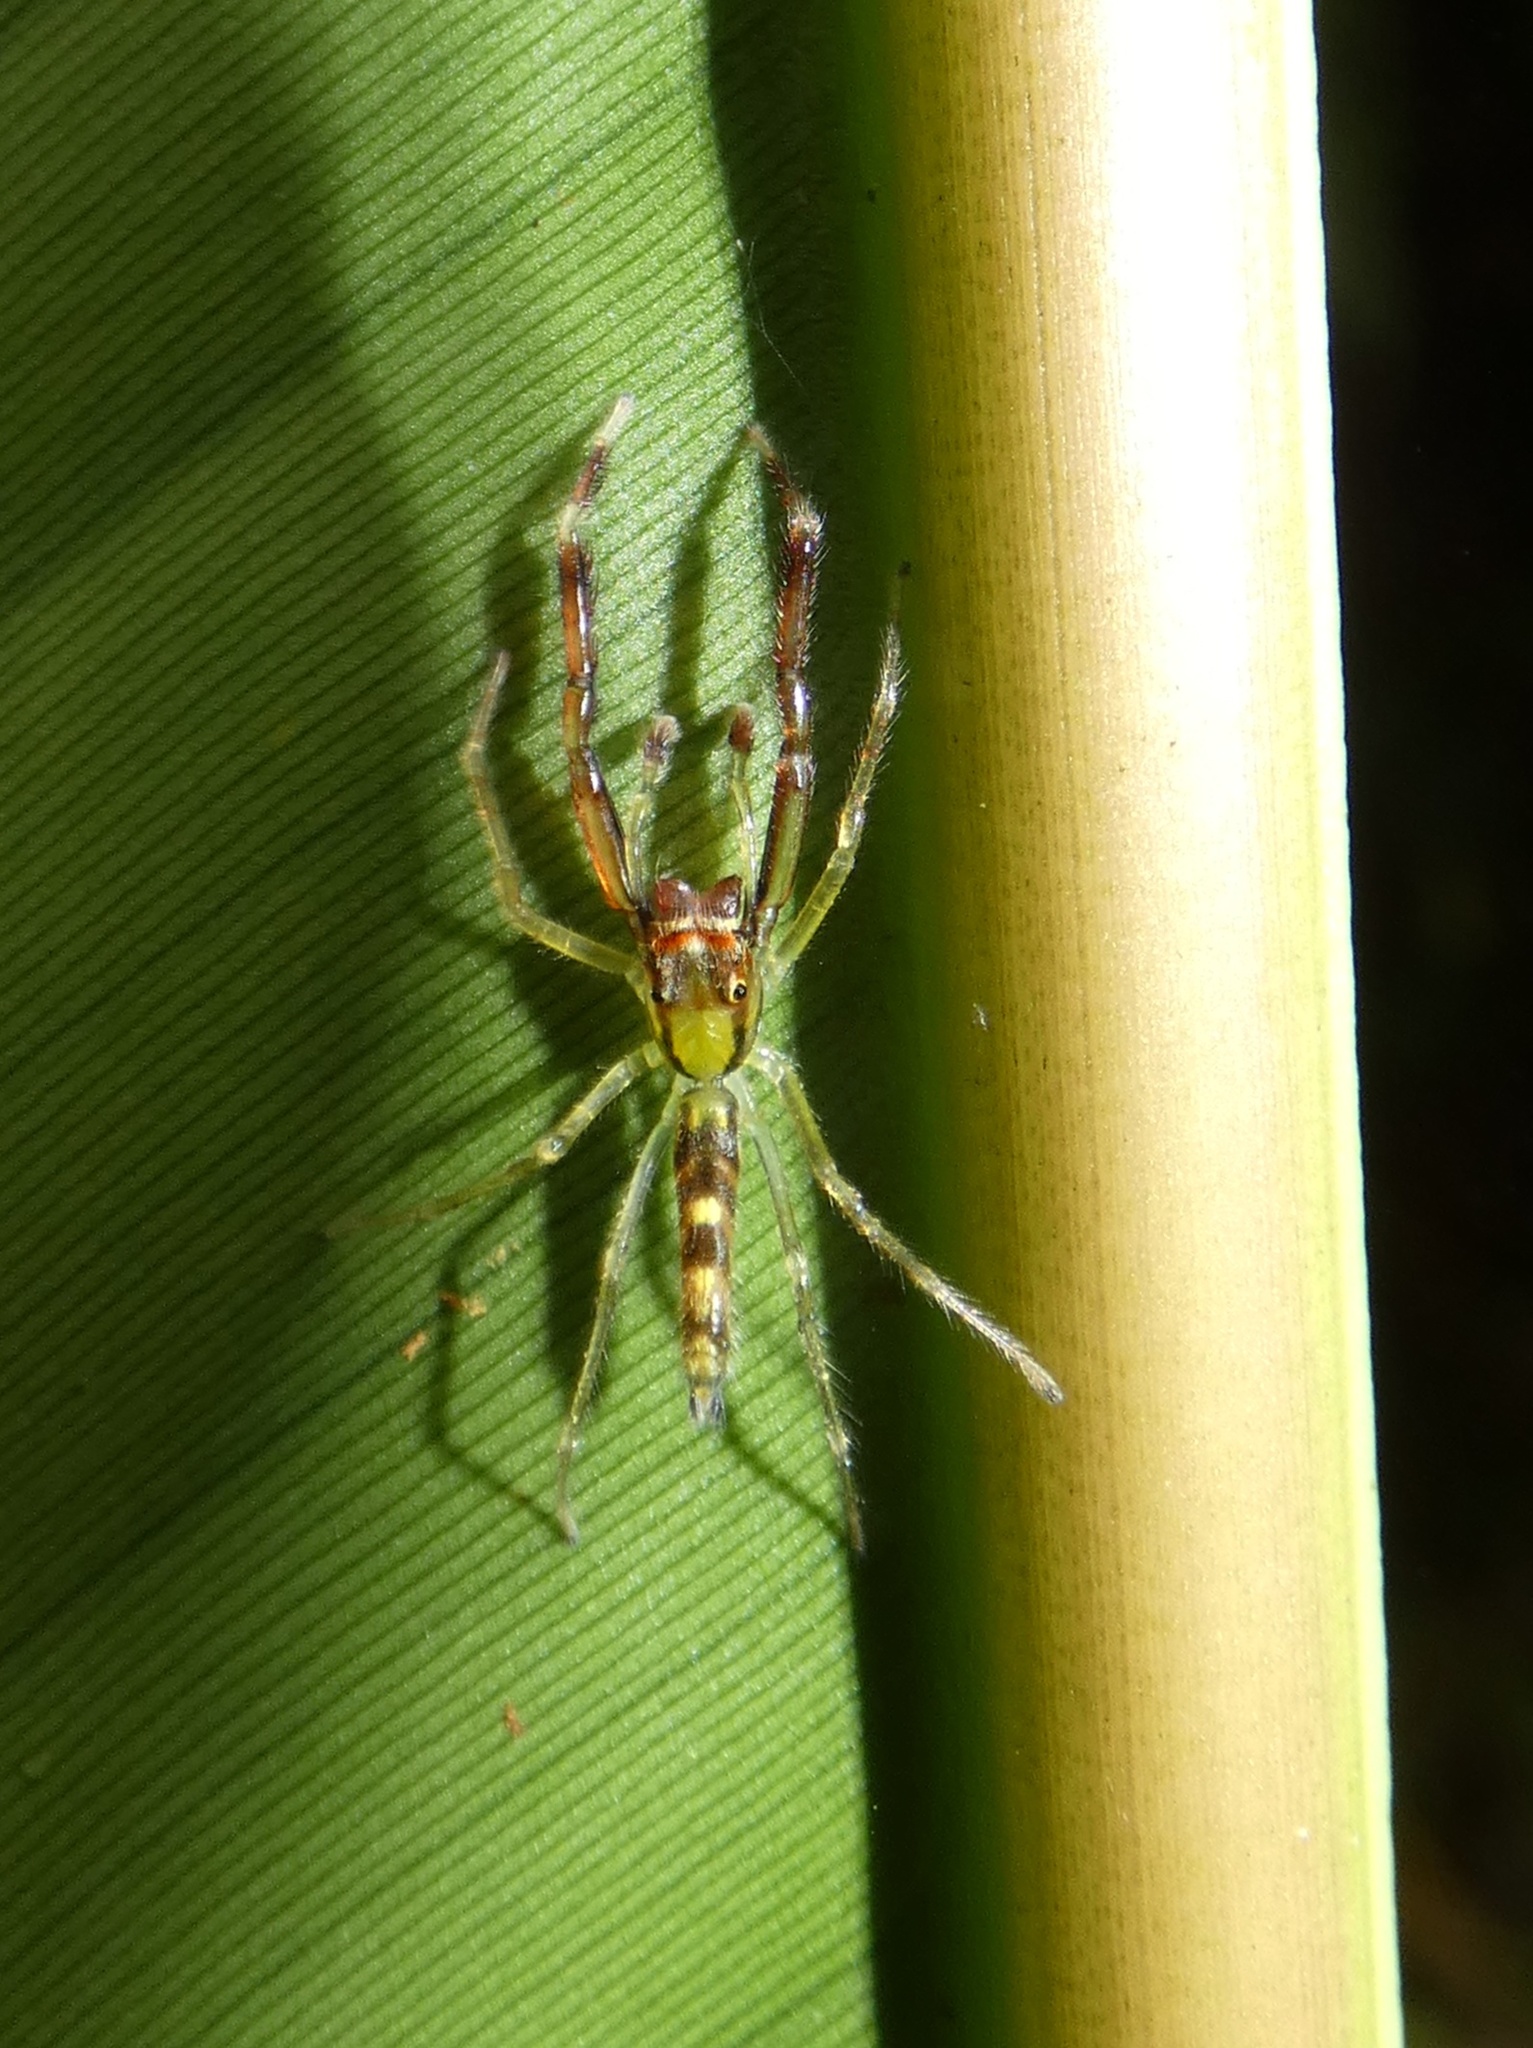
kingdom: Animalia
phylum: Arthropoda
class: Arachnida
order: Araneae
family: Salticidae
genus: Itata
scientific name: Itata completa
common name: Jumping spiders
